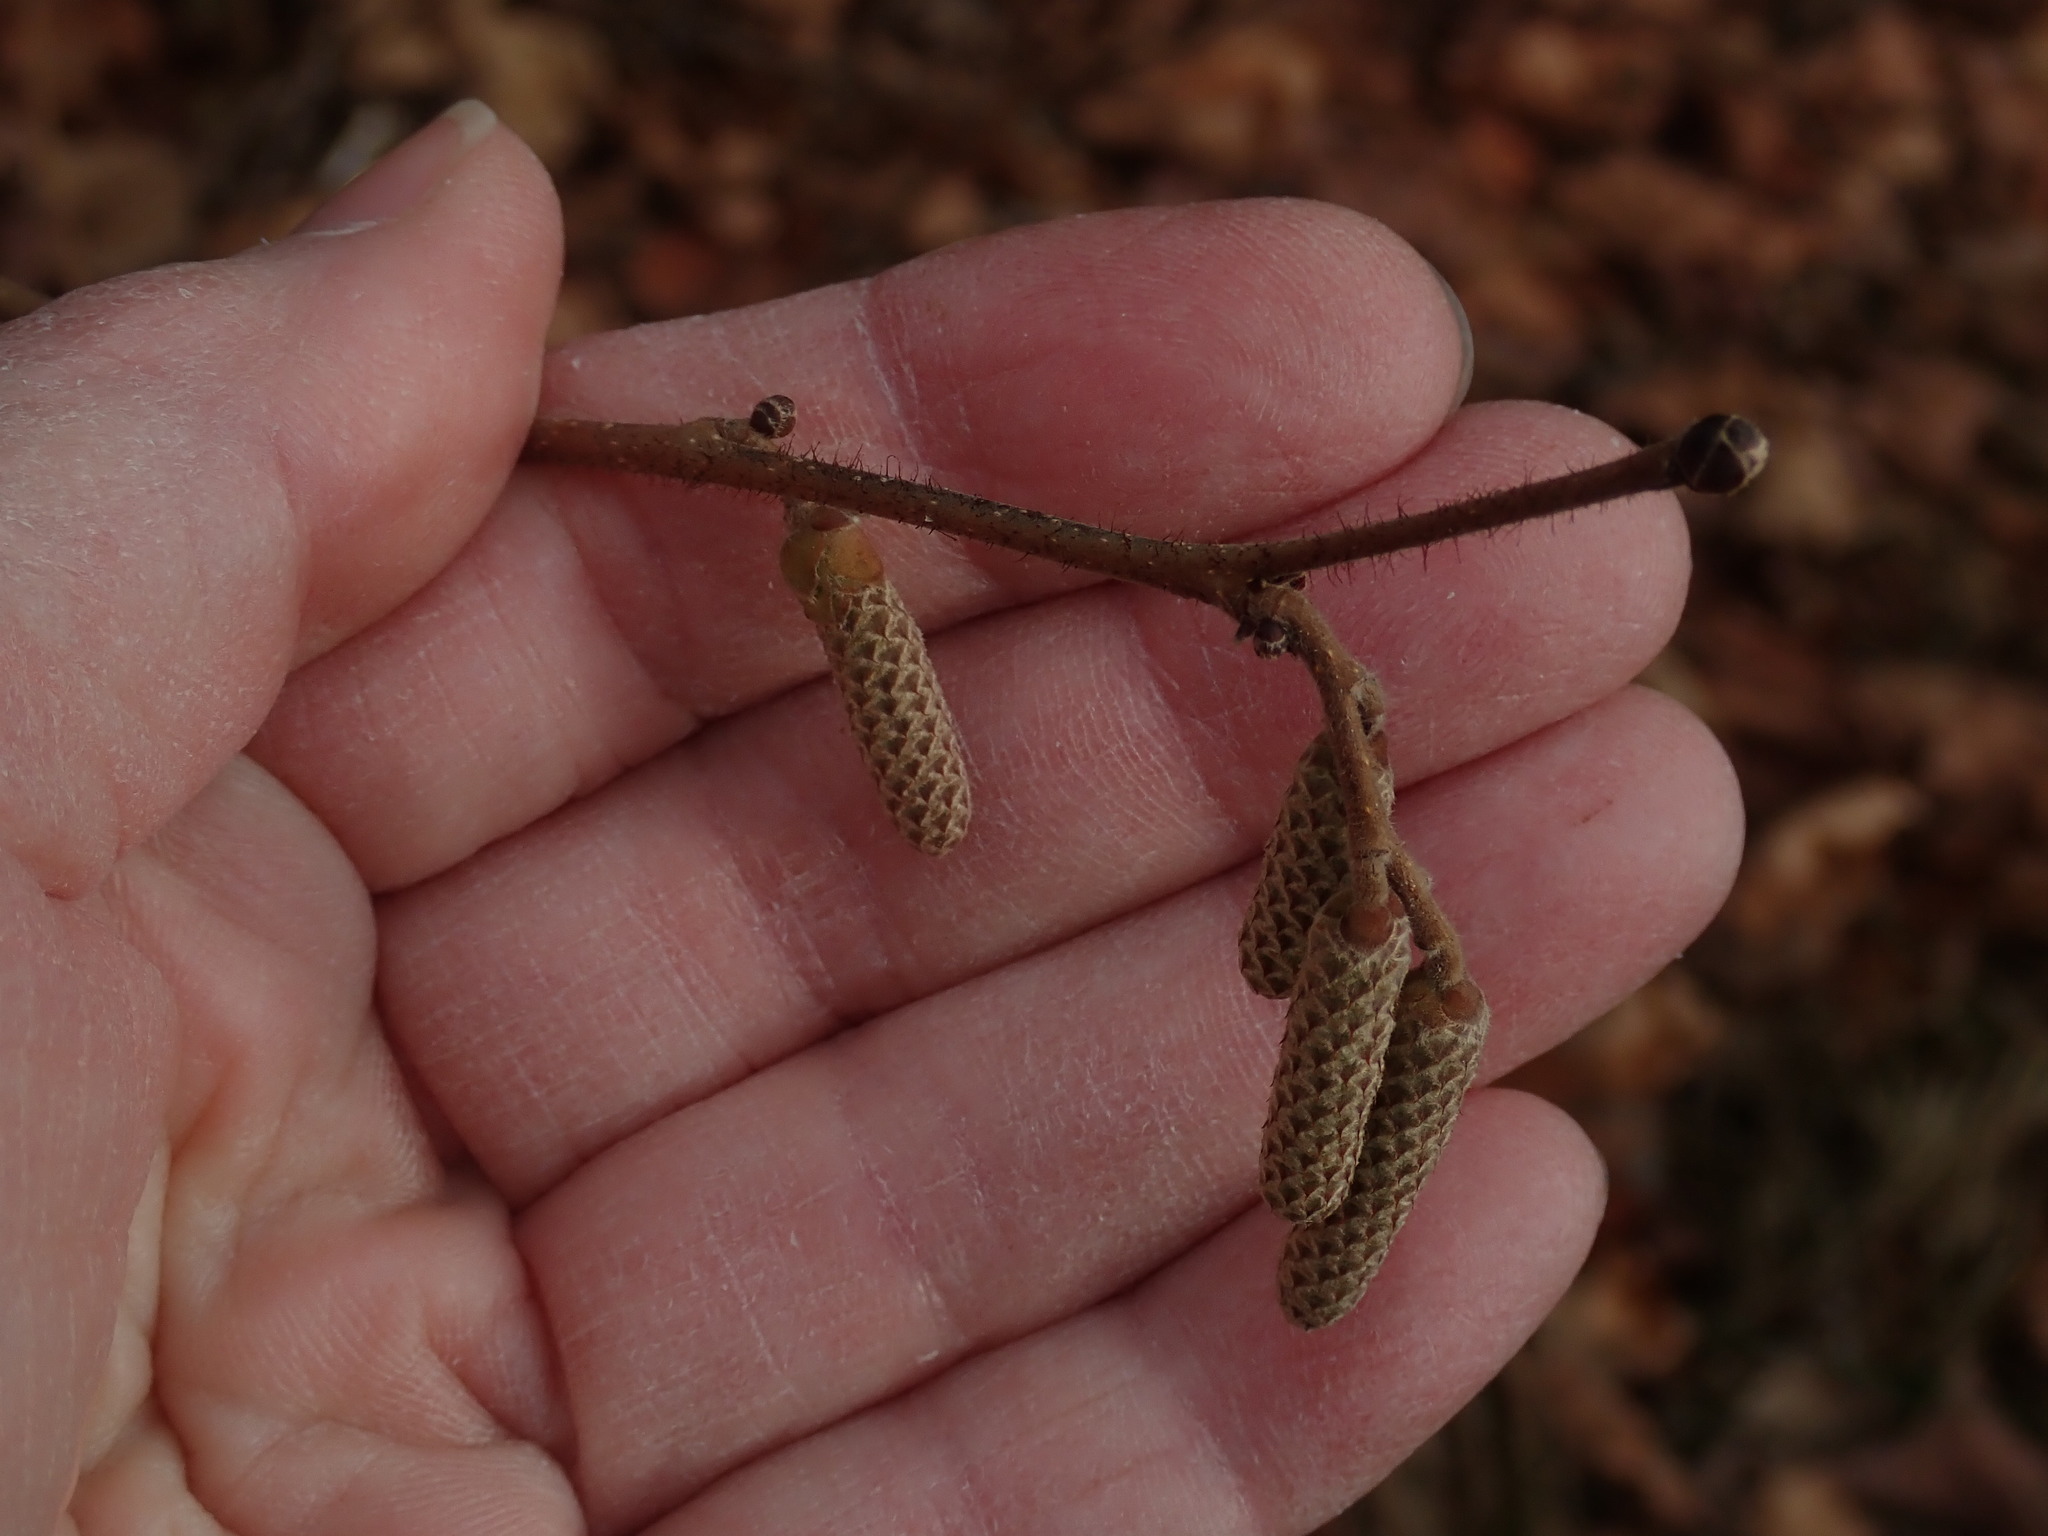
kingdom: Plantae
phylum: Tracheophyta
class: Magnoliopsida
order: Fagales
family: Betulaceae
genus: Corylus
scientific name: Corylus americana
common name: American hazel
